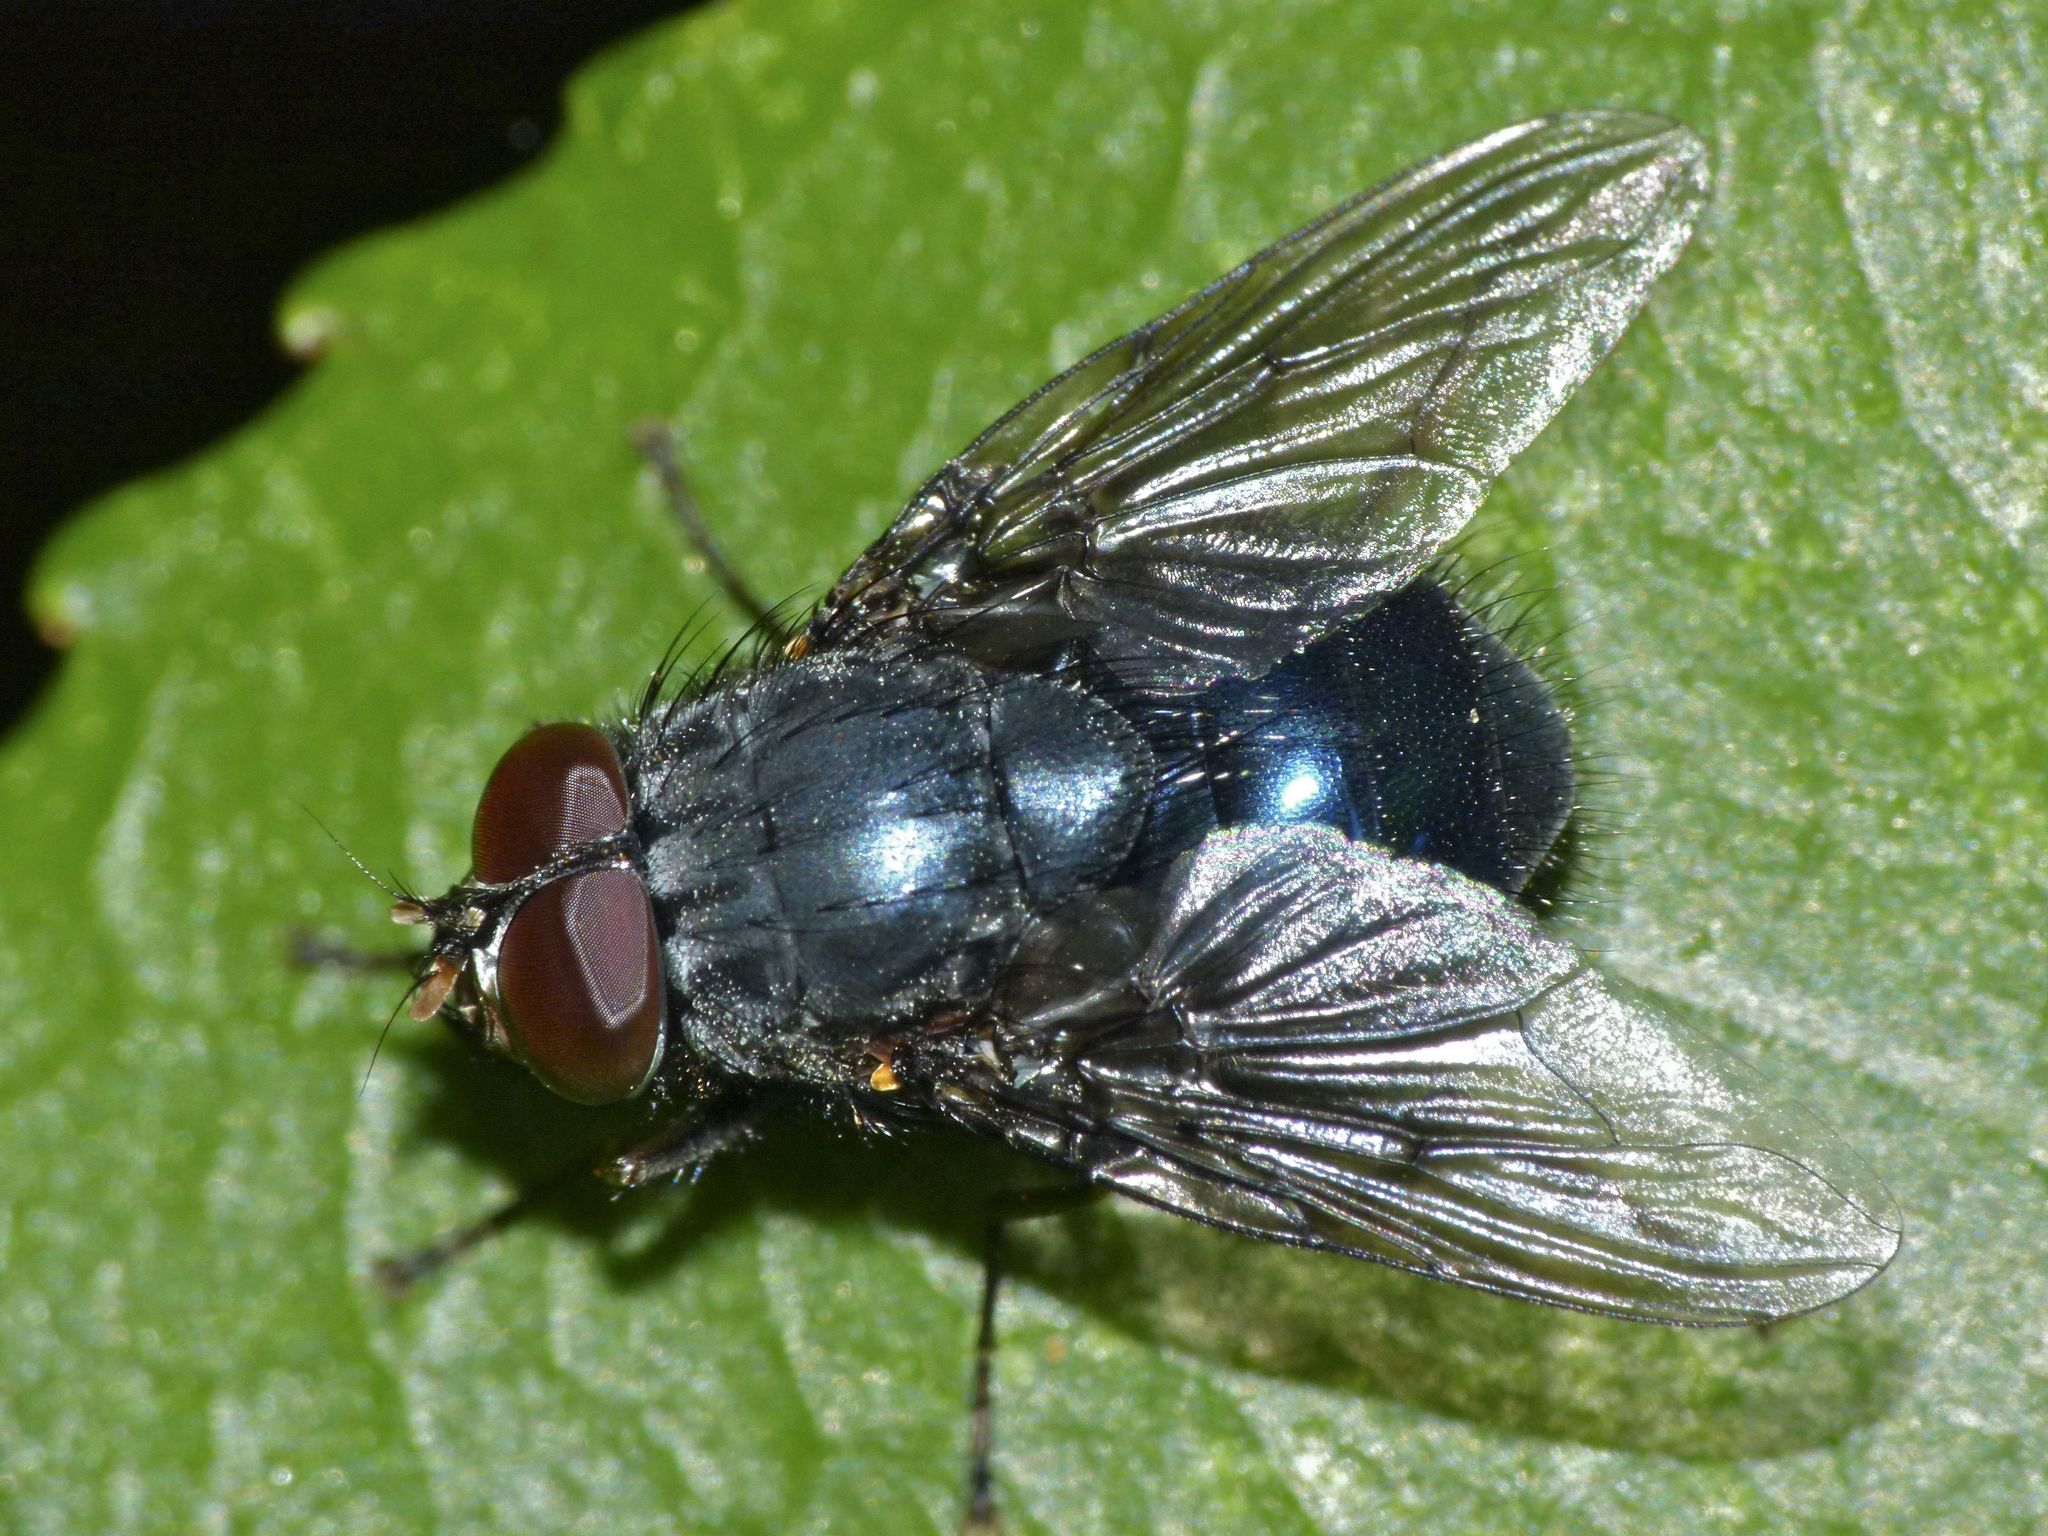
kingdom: Animalia
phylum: Arthropoda
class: Insecta
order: Diptera
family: Muscidae
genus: Calliphoroides
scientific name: Calliphoroides antennatis
